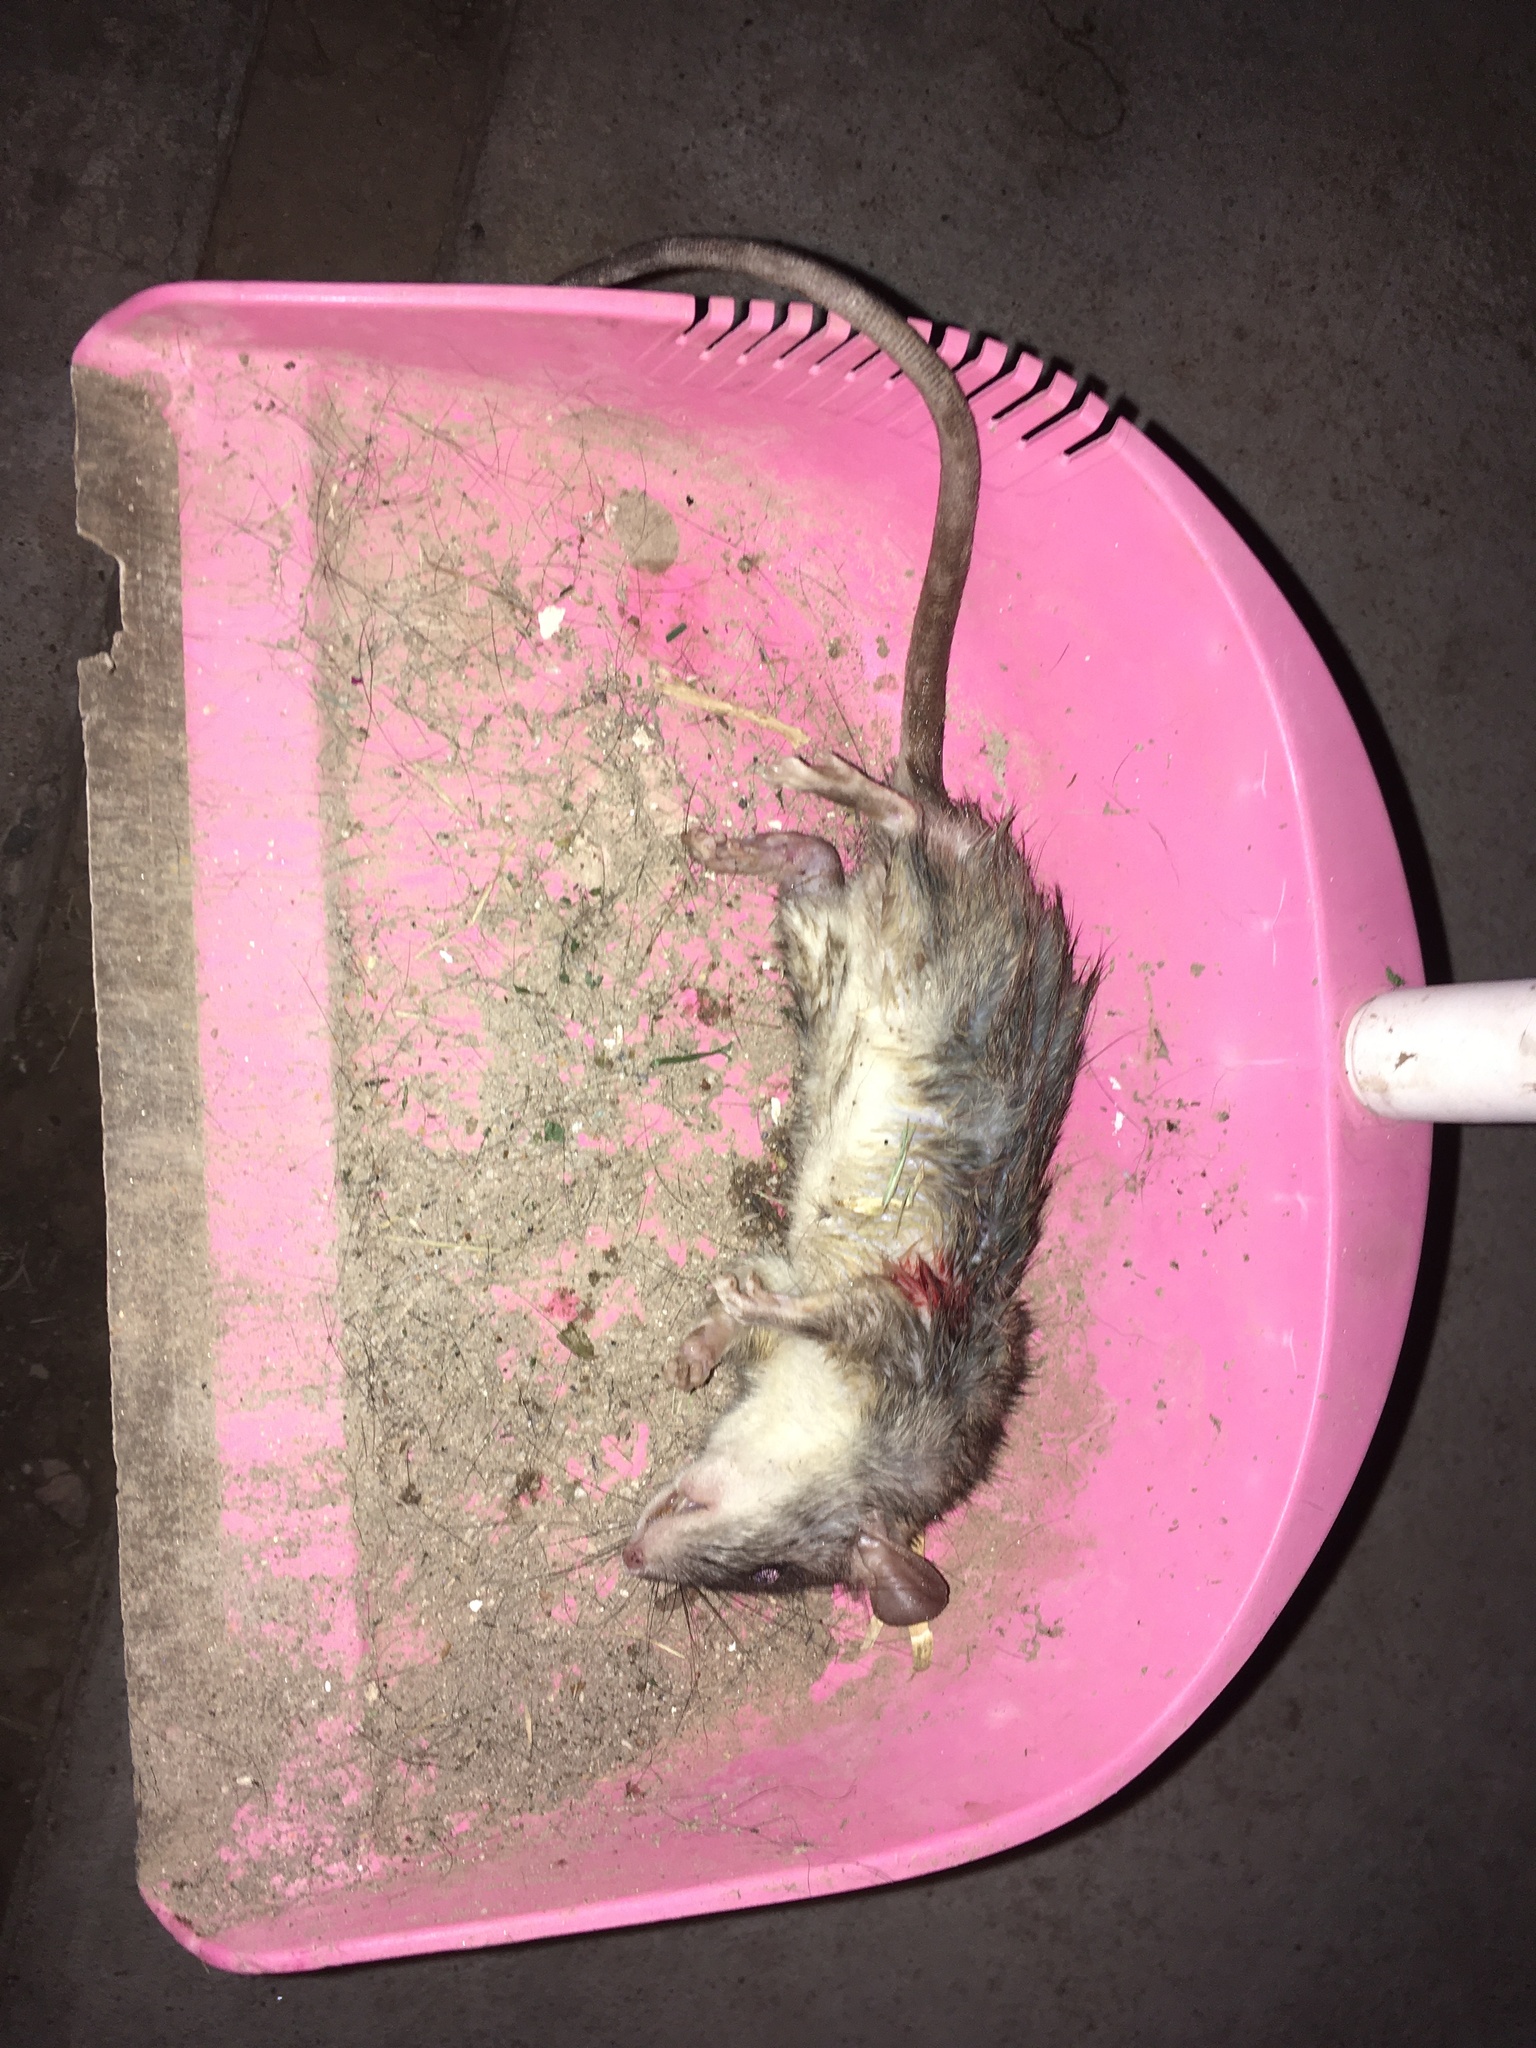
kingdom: Animalia
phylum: Chordata
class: Mammalia
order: Rodentia
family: Muridae
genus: Rattus
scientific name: Rattus norvegicus
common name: Brown rat
